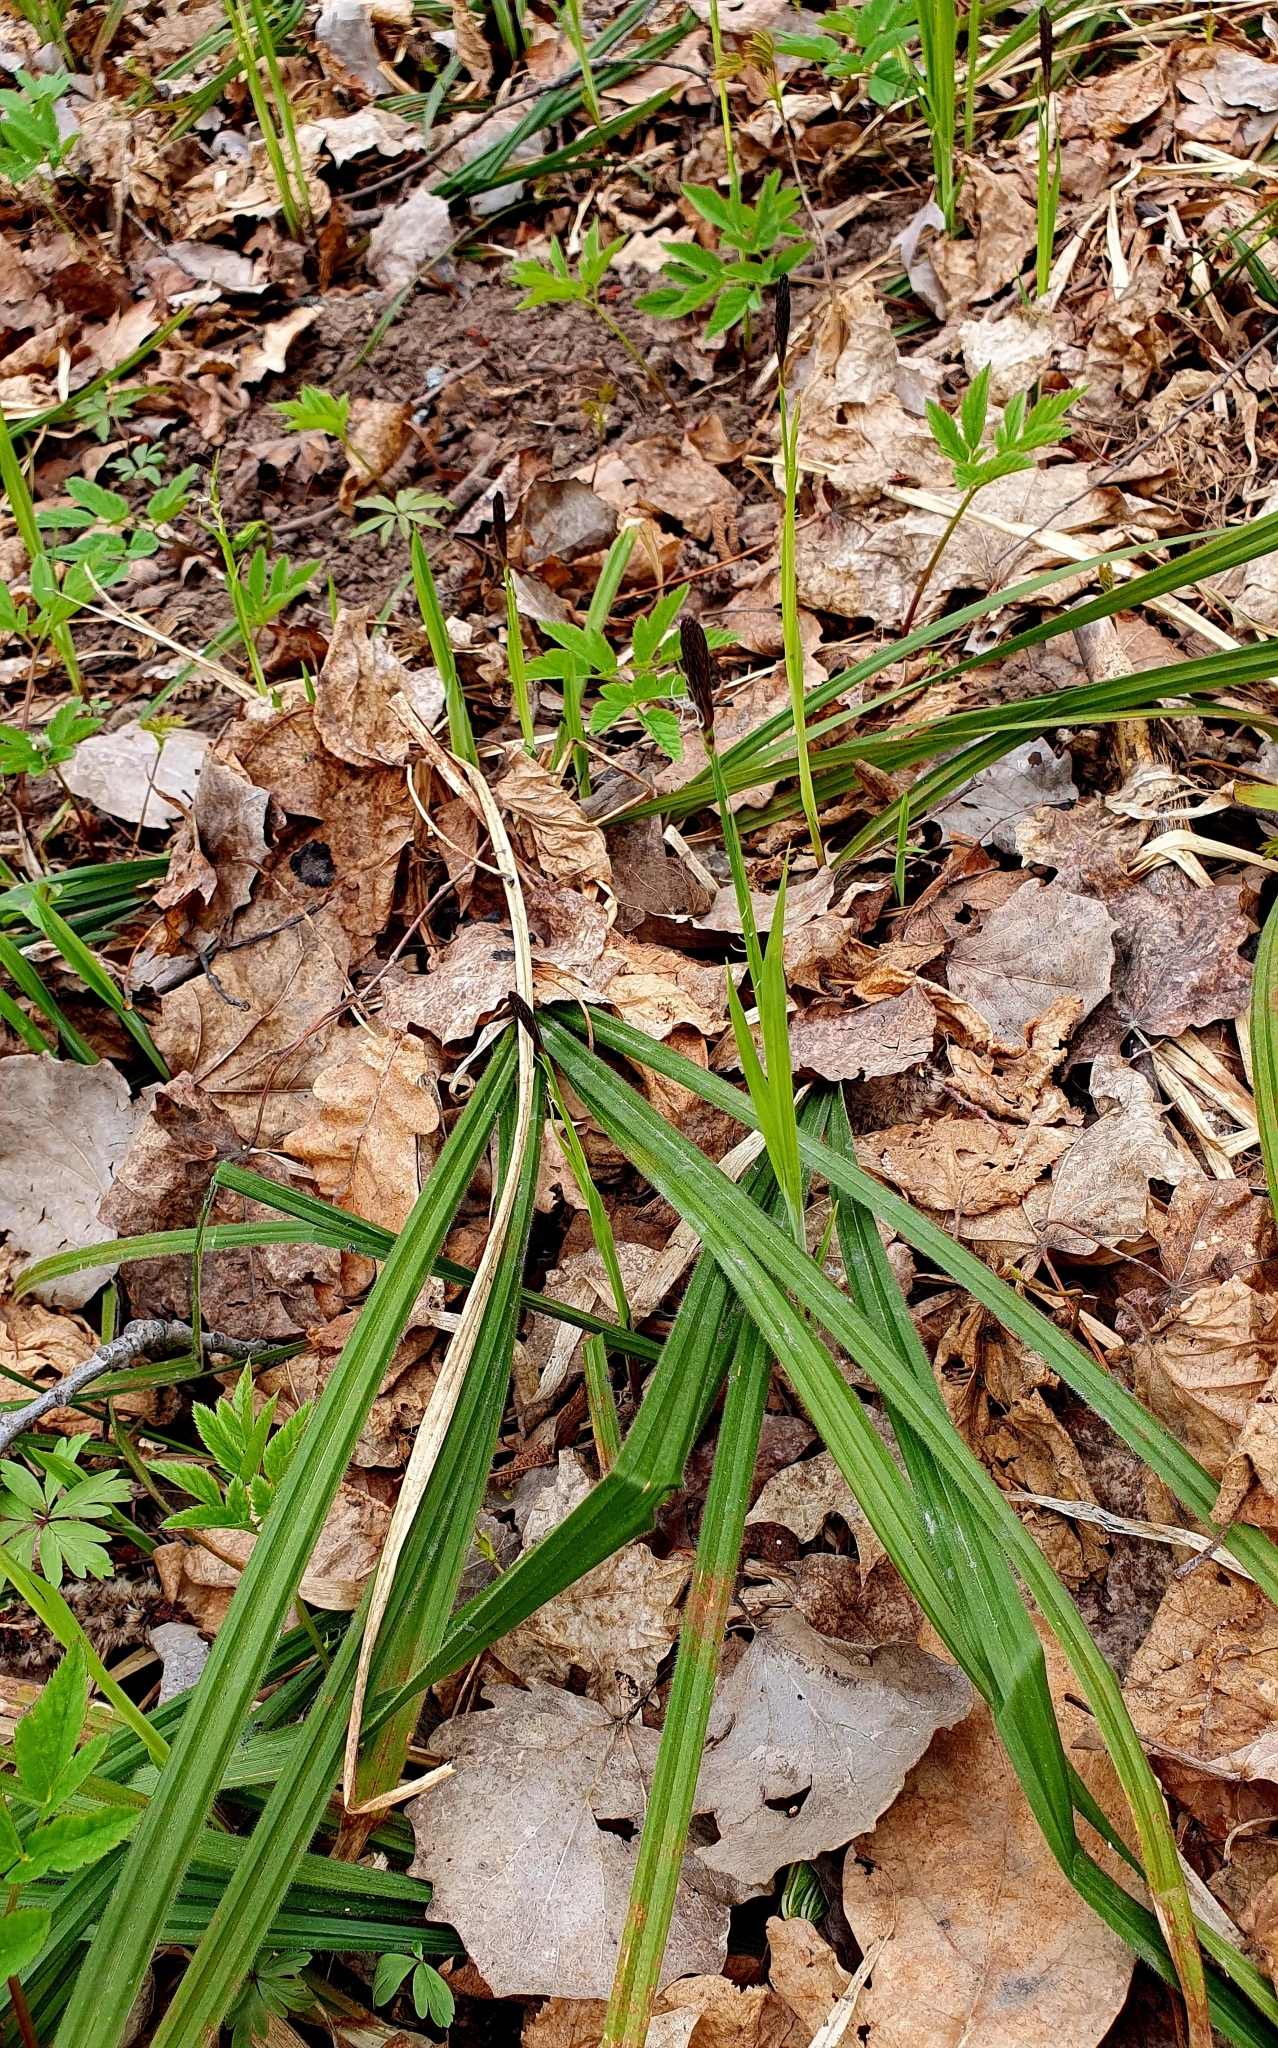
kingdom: Plantae
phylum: Tracheophyta
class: Liliopsida
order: Poales
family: Cyperaceae
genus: Carex
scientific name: Carex pilosa
